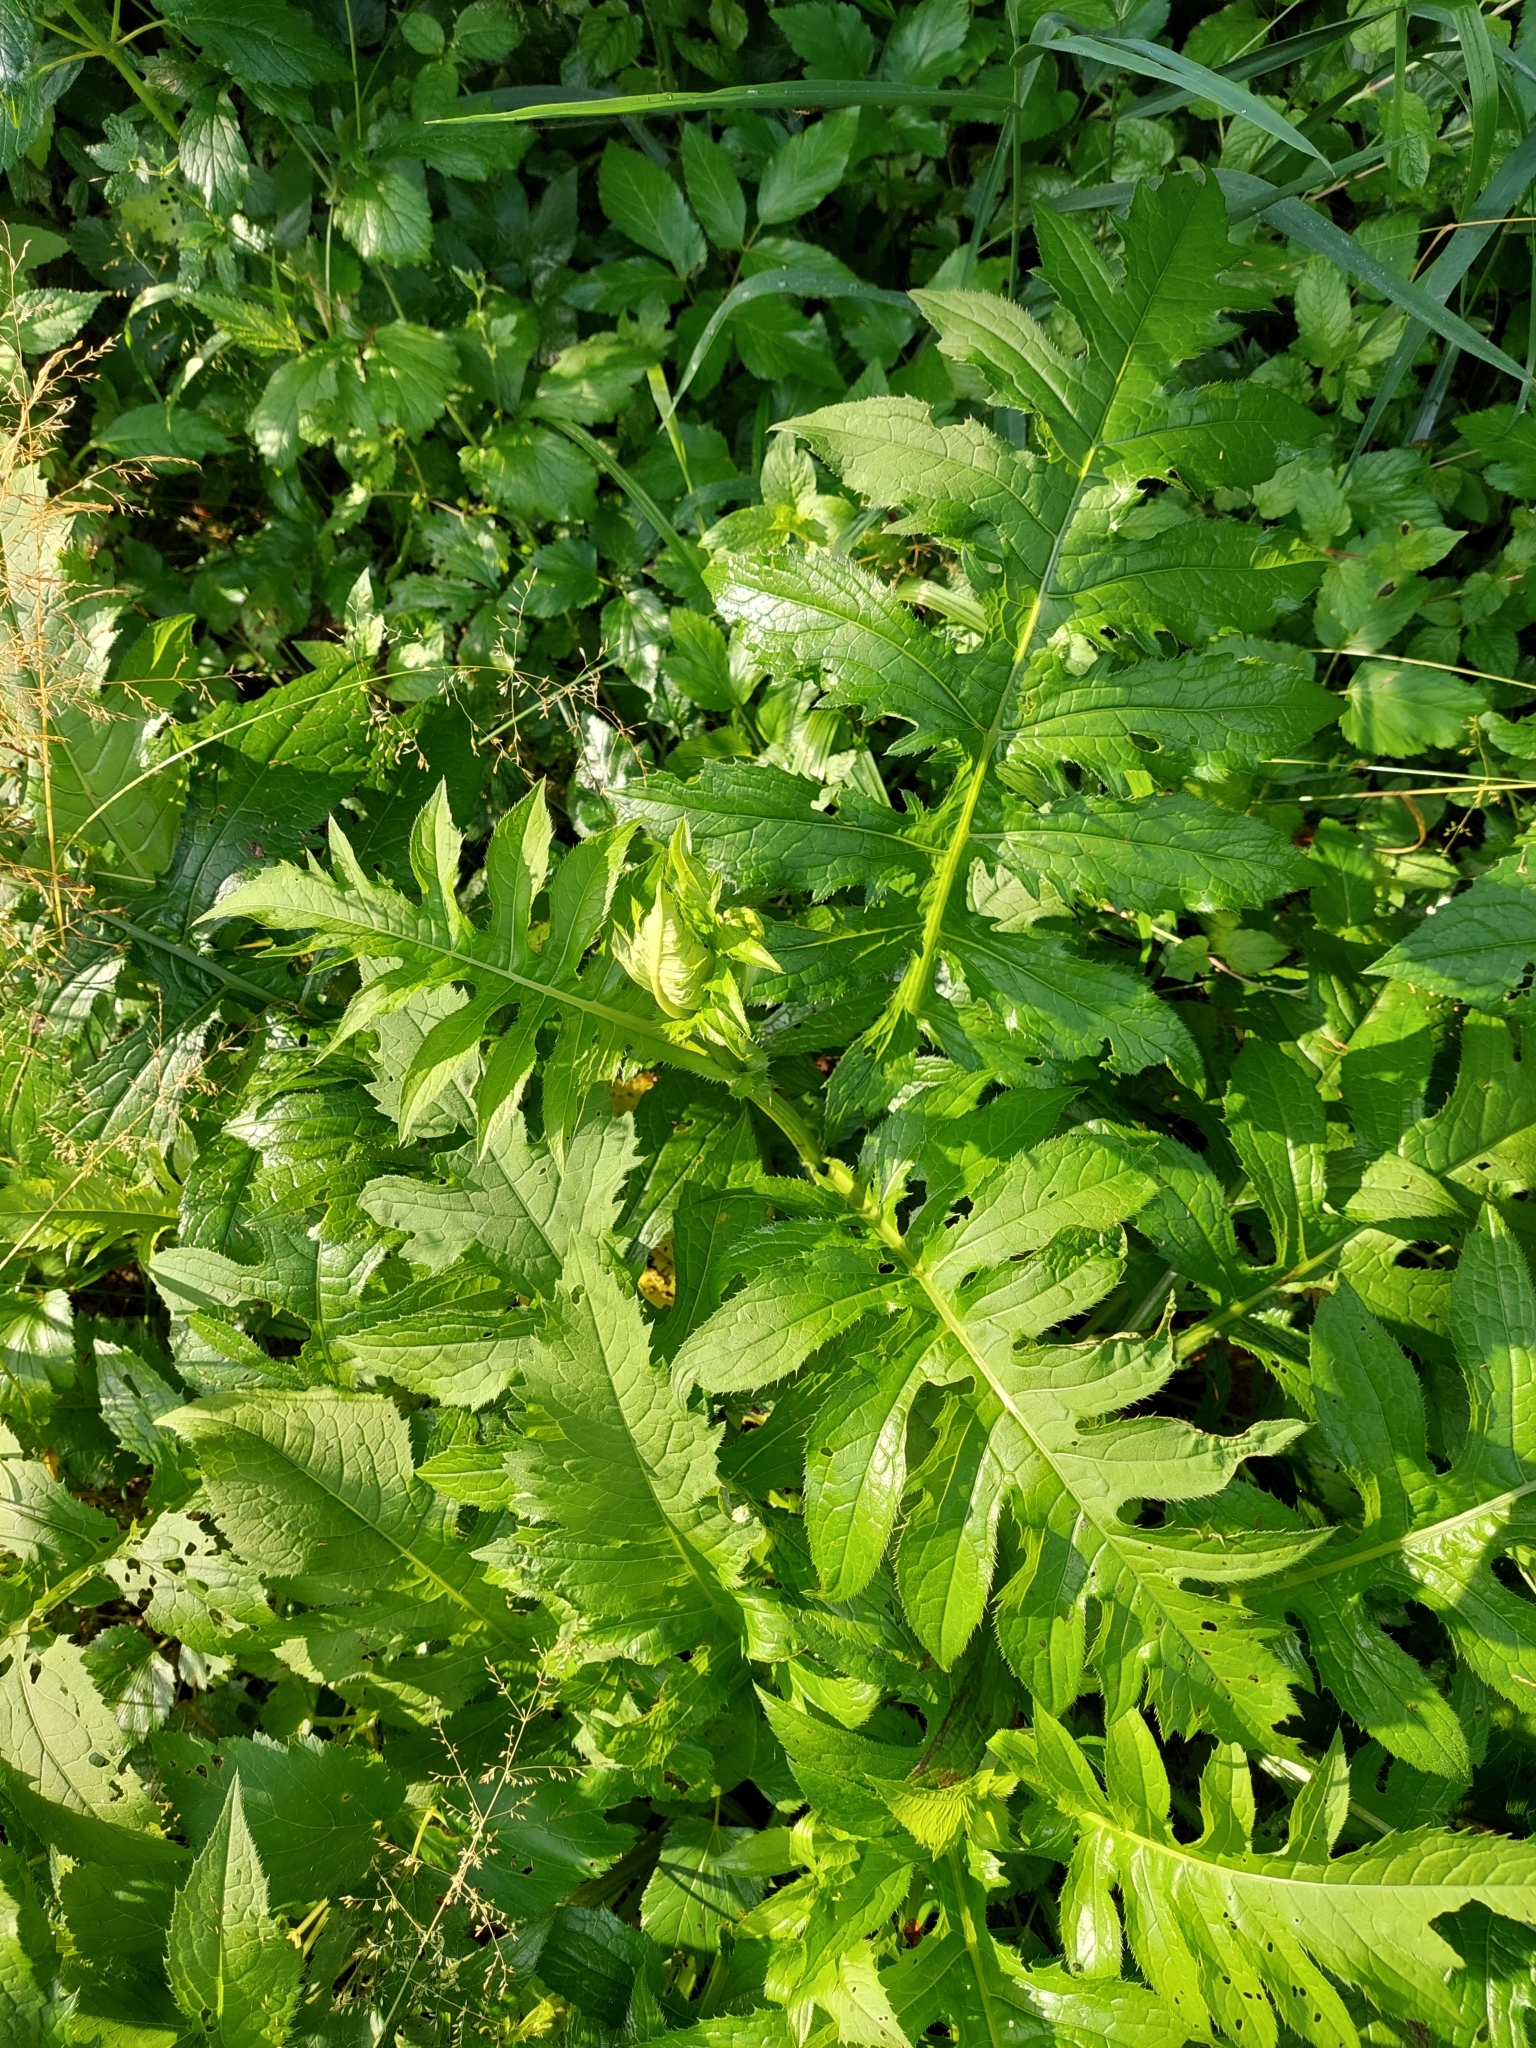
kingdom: Plantae
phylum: Tracheophyta
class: Magnoliopsida
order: Asterales
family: Asteraceae
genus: Cirsium
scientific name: Cirsium oleraceum
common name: Cabbage thistle
